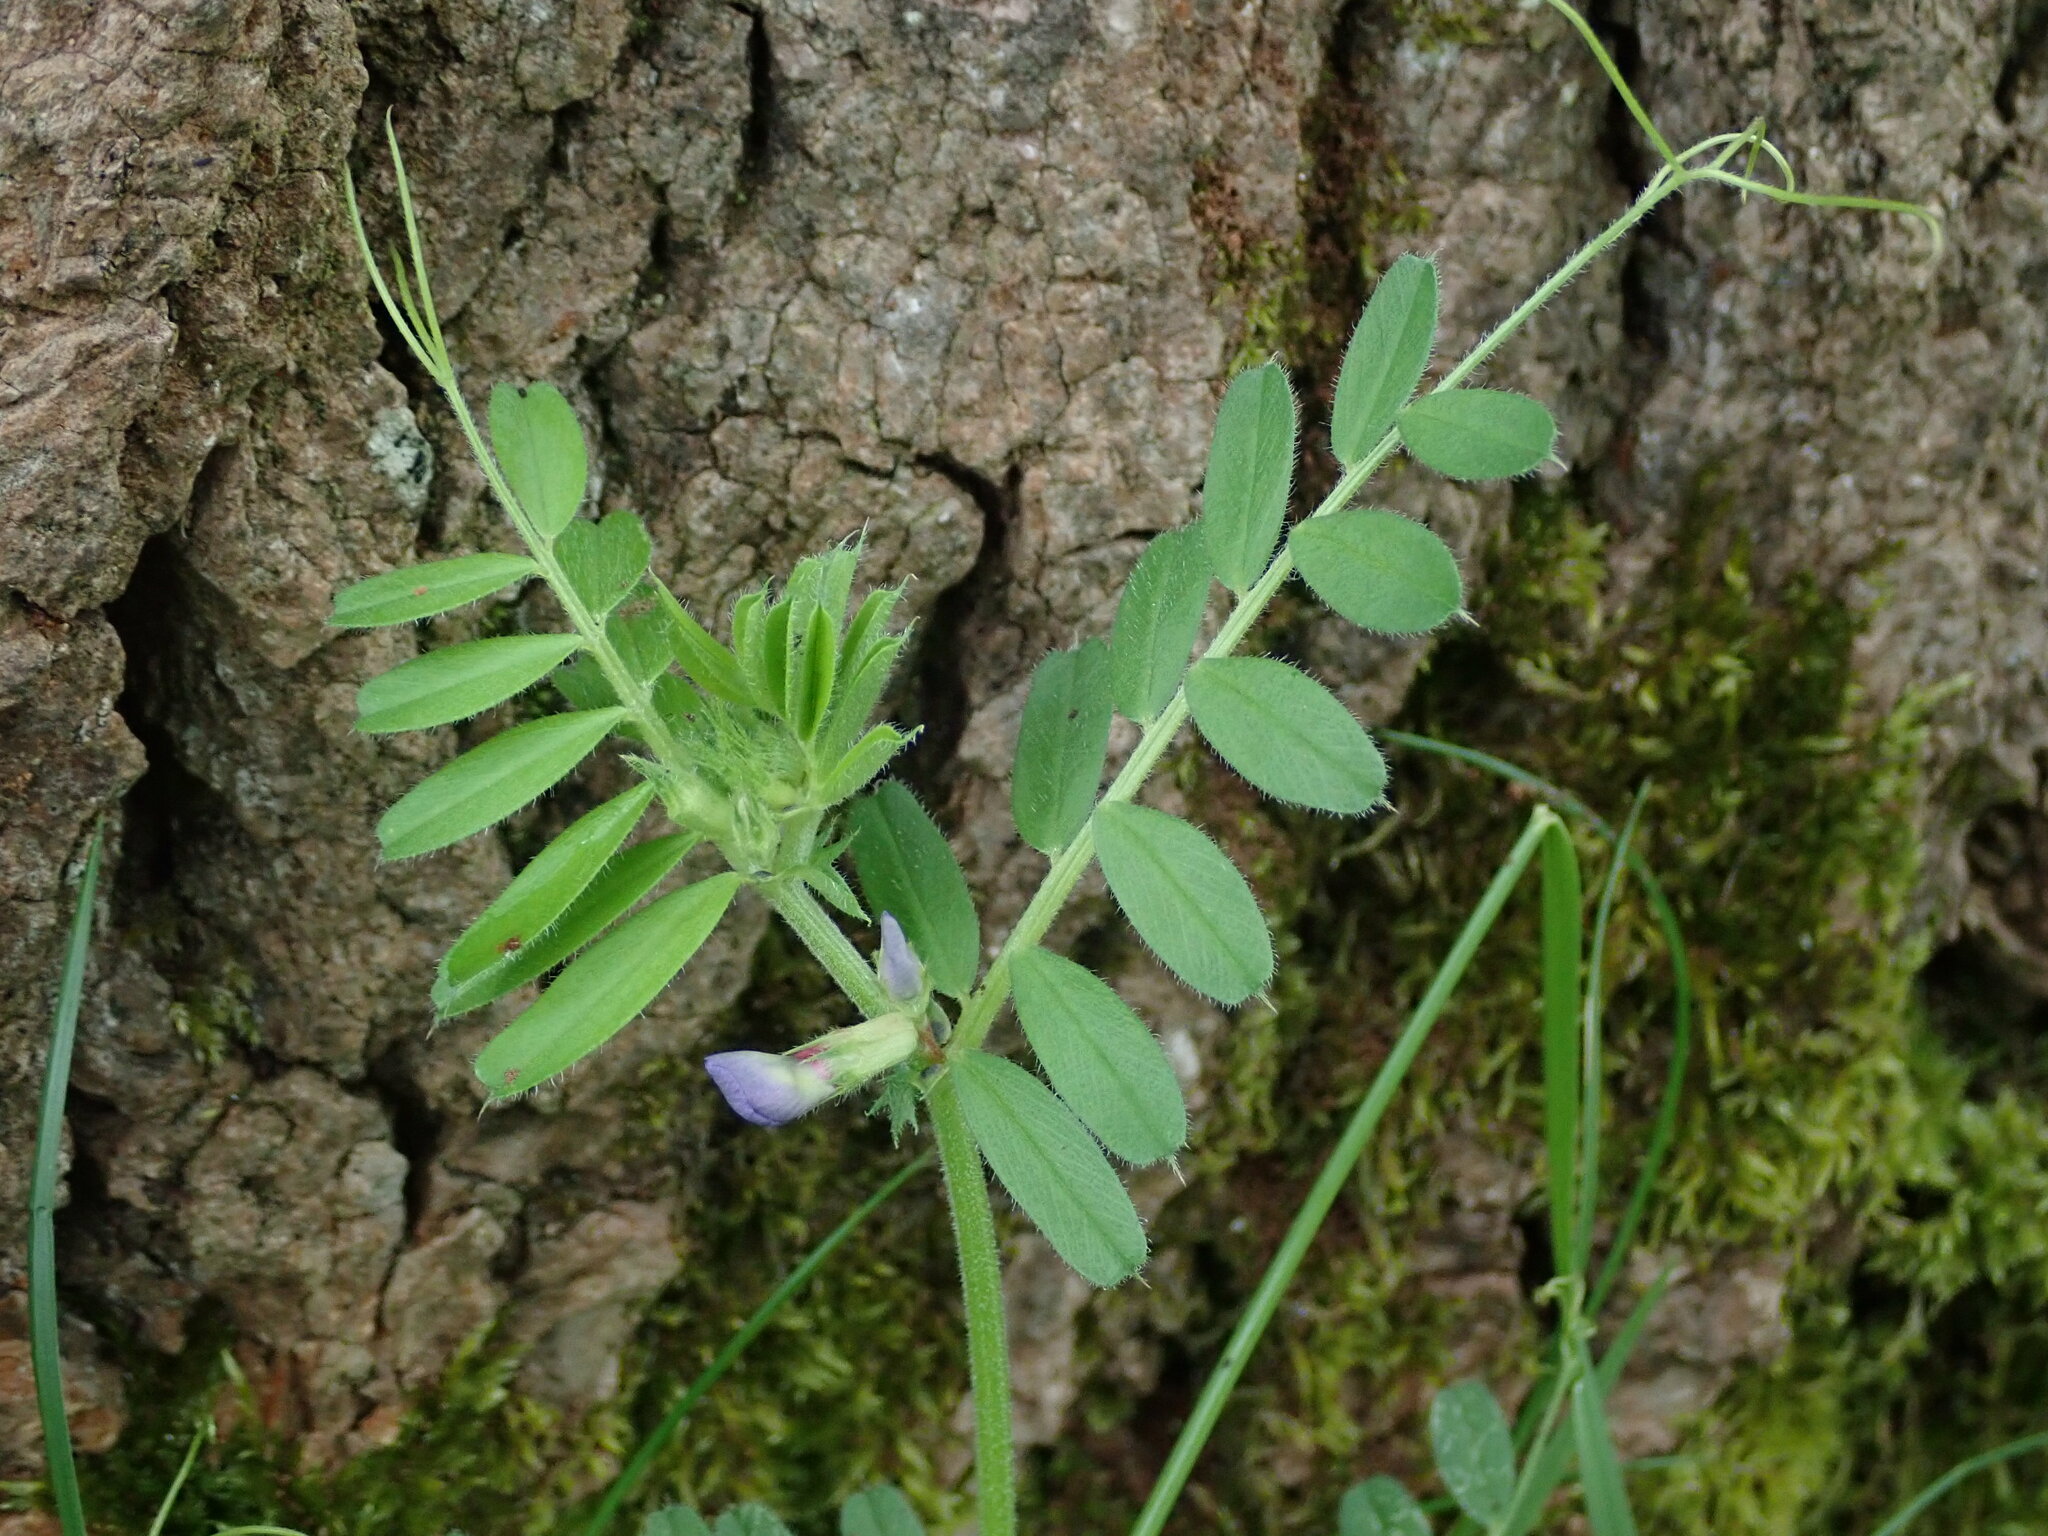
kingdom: Plantae
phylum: Tracheophyta
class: Magnoliopsida
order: Fabales
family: Fabaceae
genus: Vicia
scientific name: Vicia sativa
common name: Garden vetch
